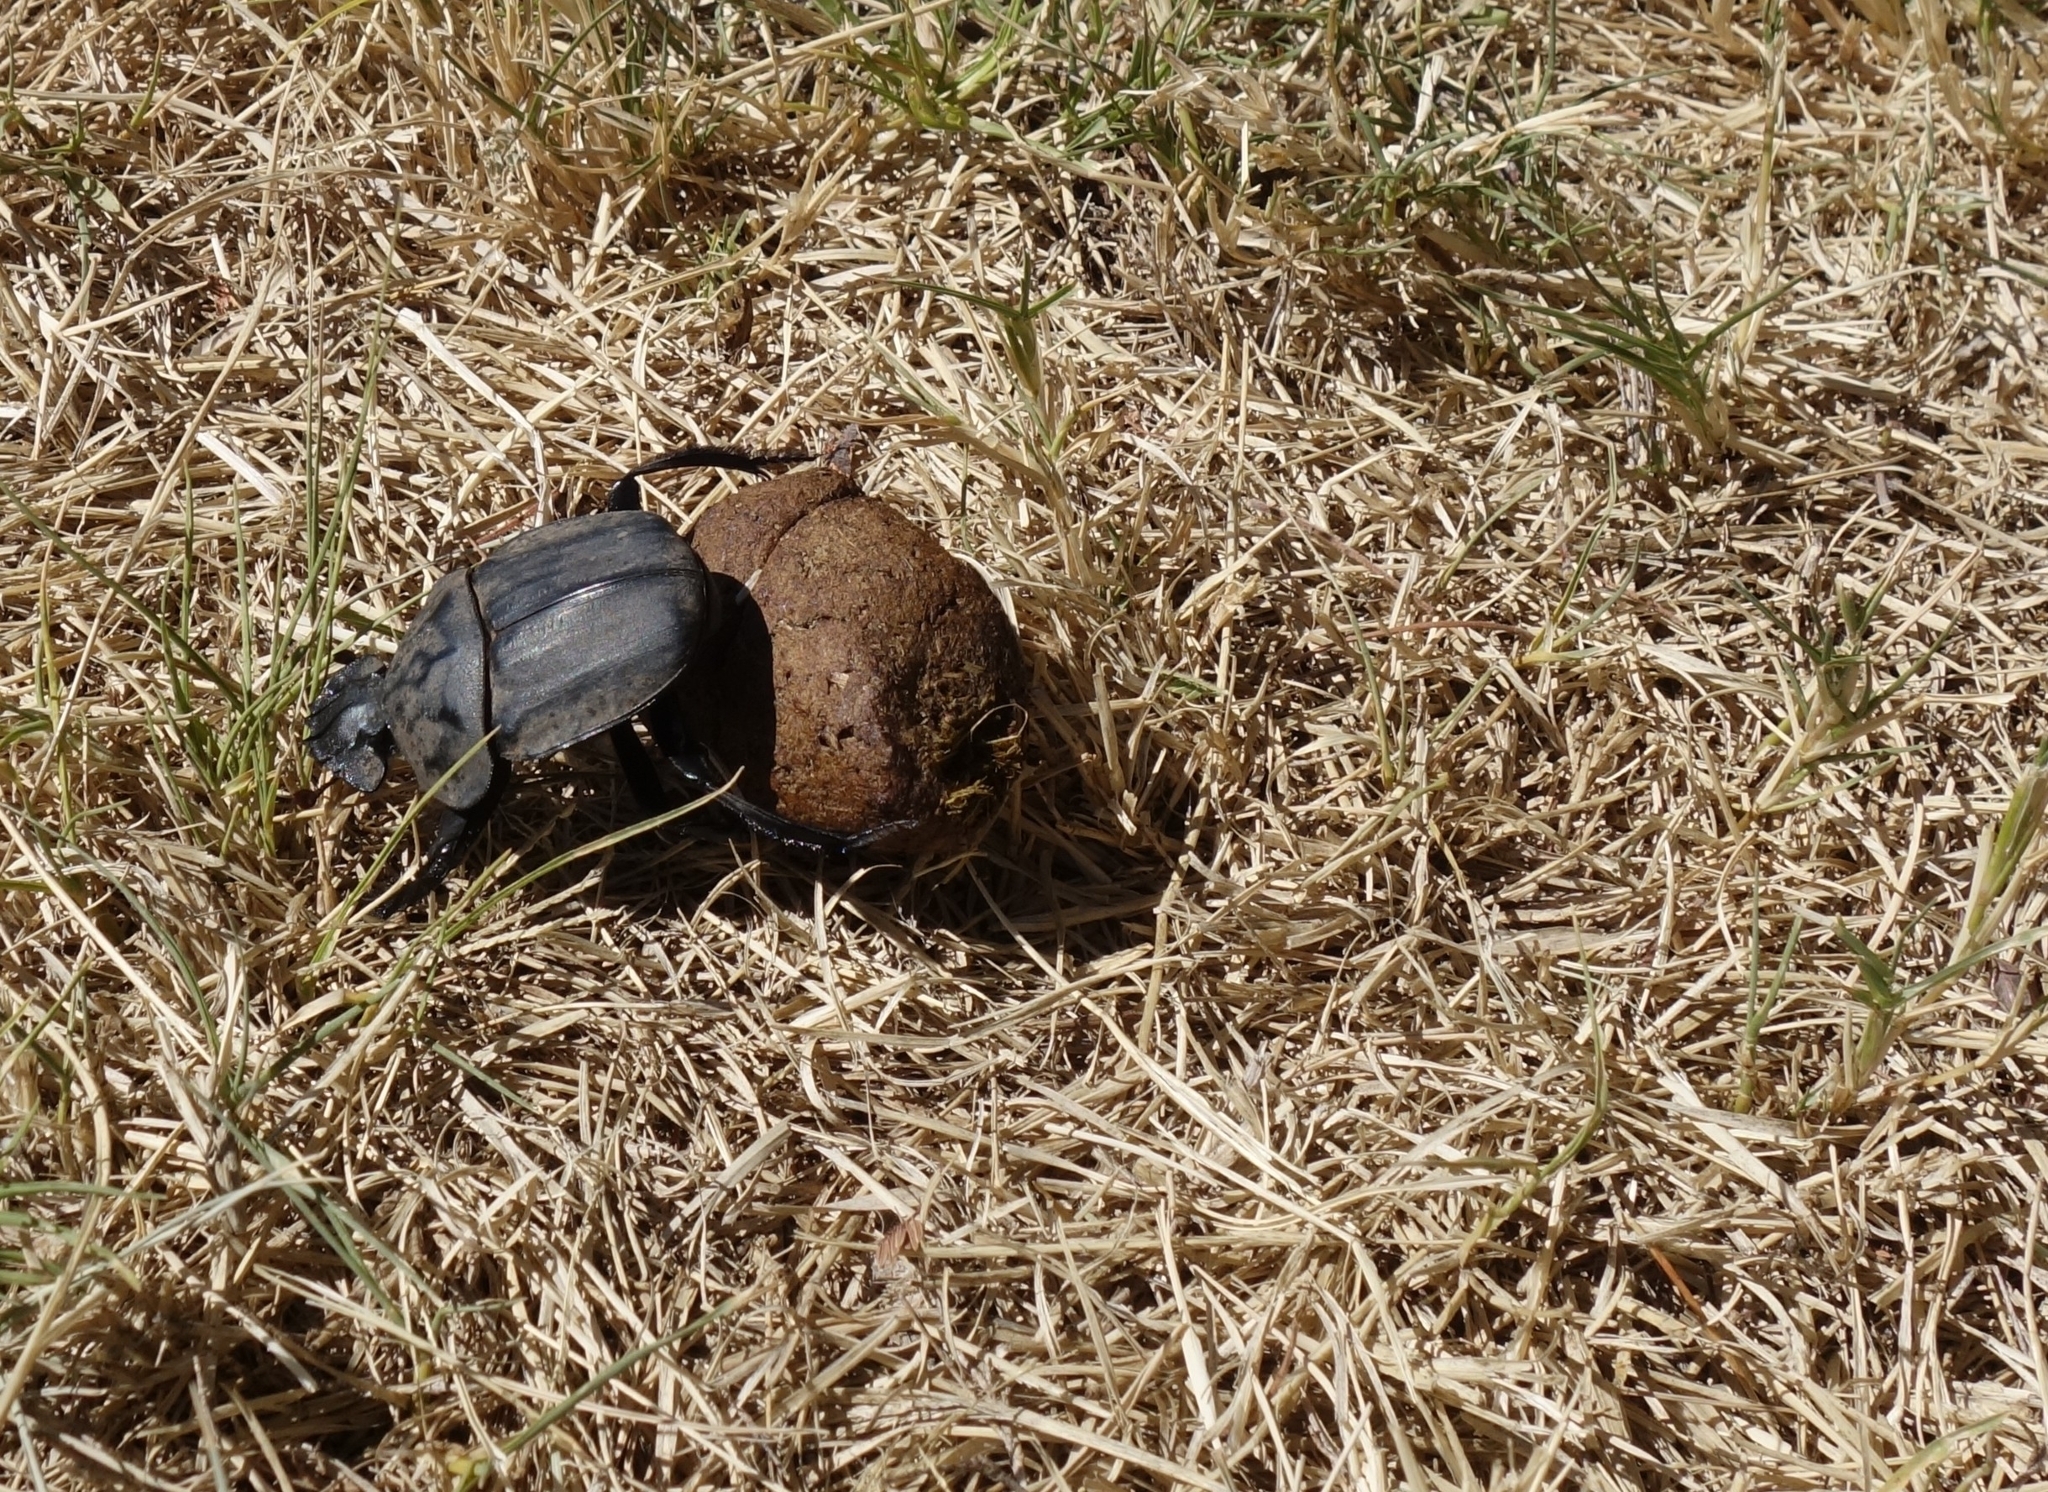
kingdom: Animalia
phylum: Arthropoda
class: Insecta
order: Coleoptera
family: Scarabaeidae
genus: Pachylomera
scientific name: Pachylomera femoralis
